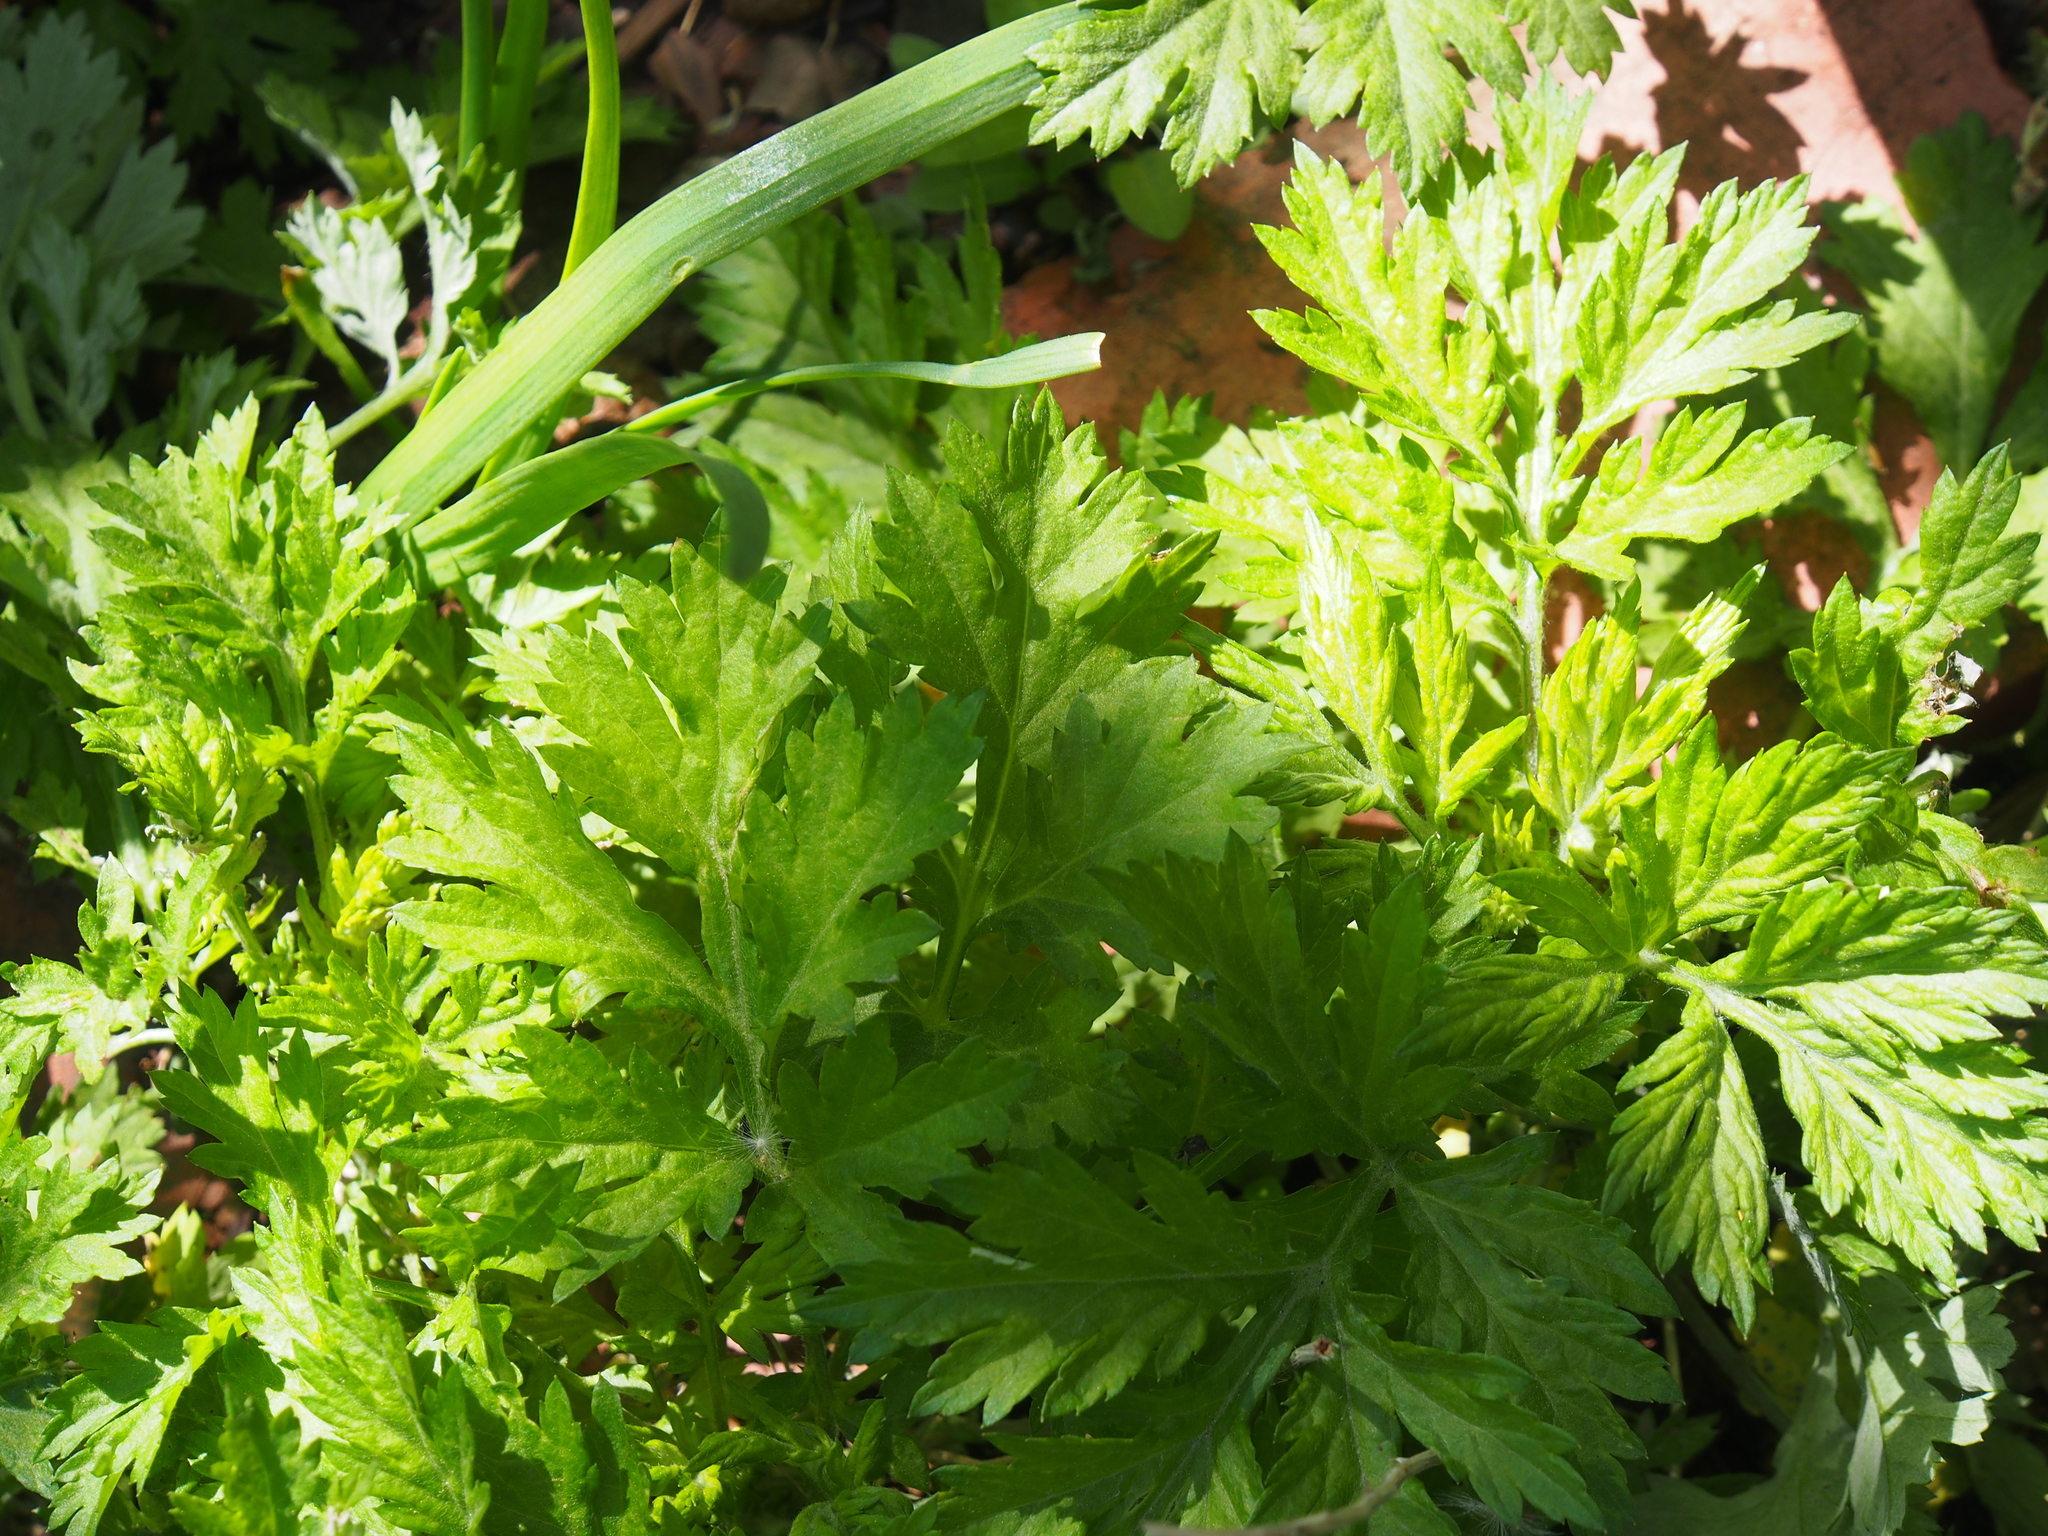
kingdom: Plantae
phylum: Tracheophyta
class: Magnoliopsida
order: Asterales
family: Asteraceae
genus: Artemisia
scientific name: Artemisia vulgaris
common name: Mugwort
